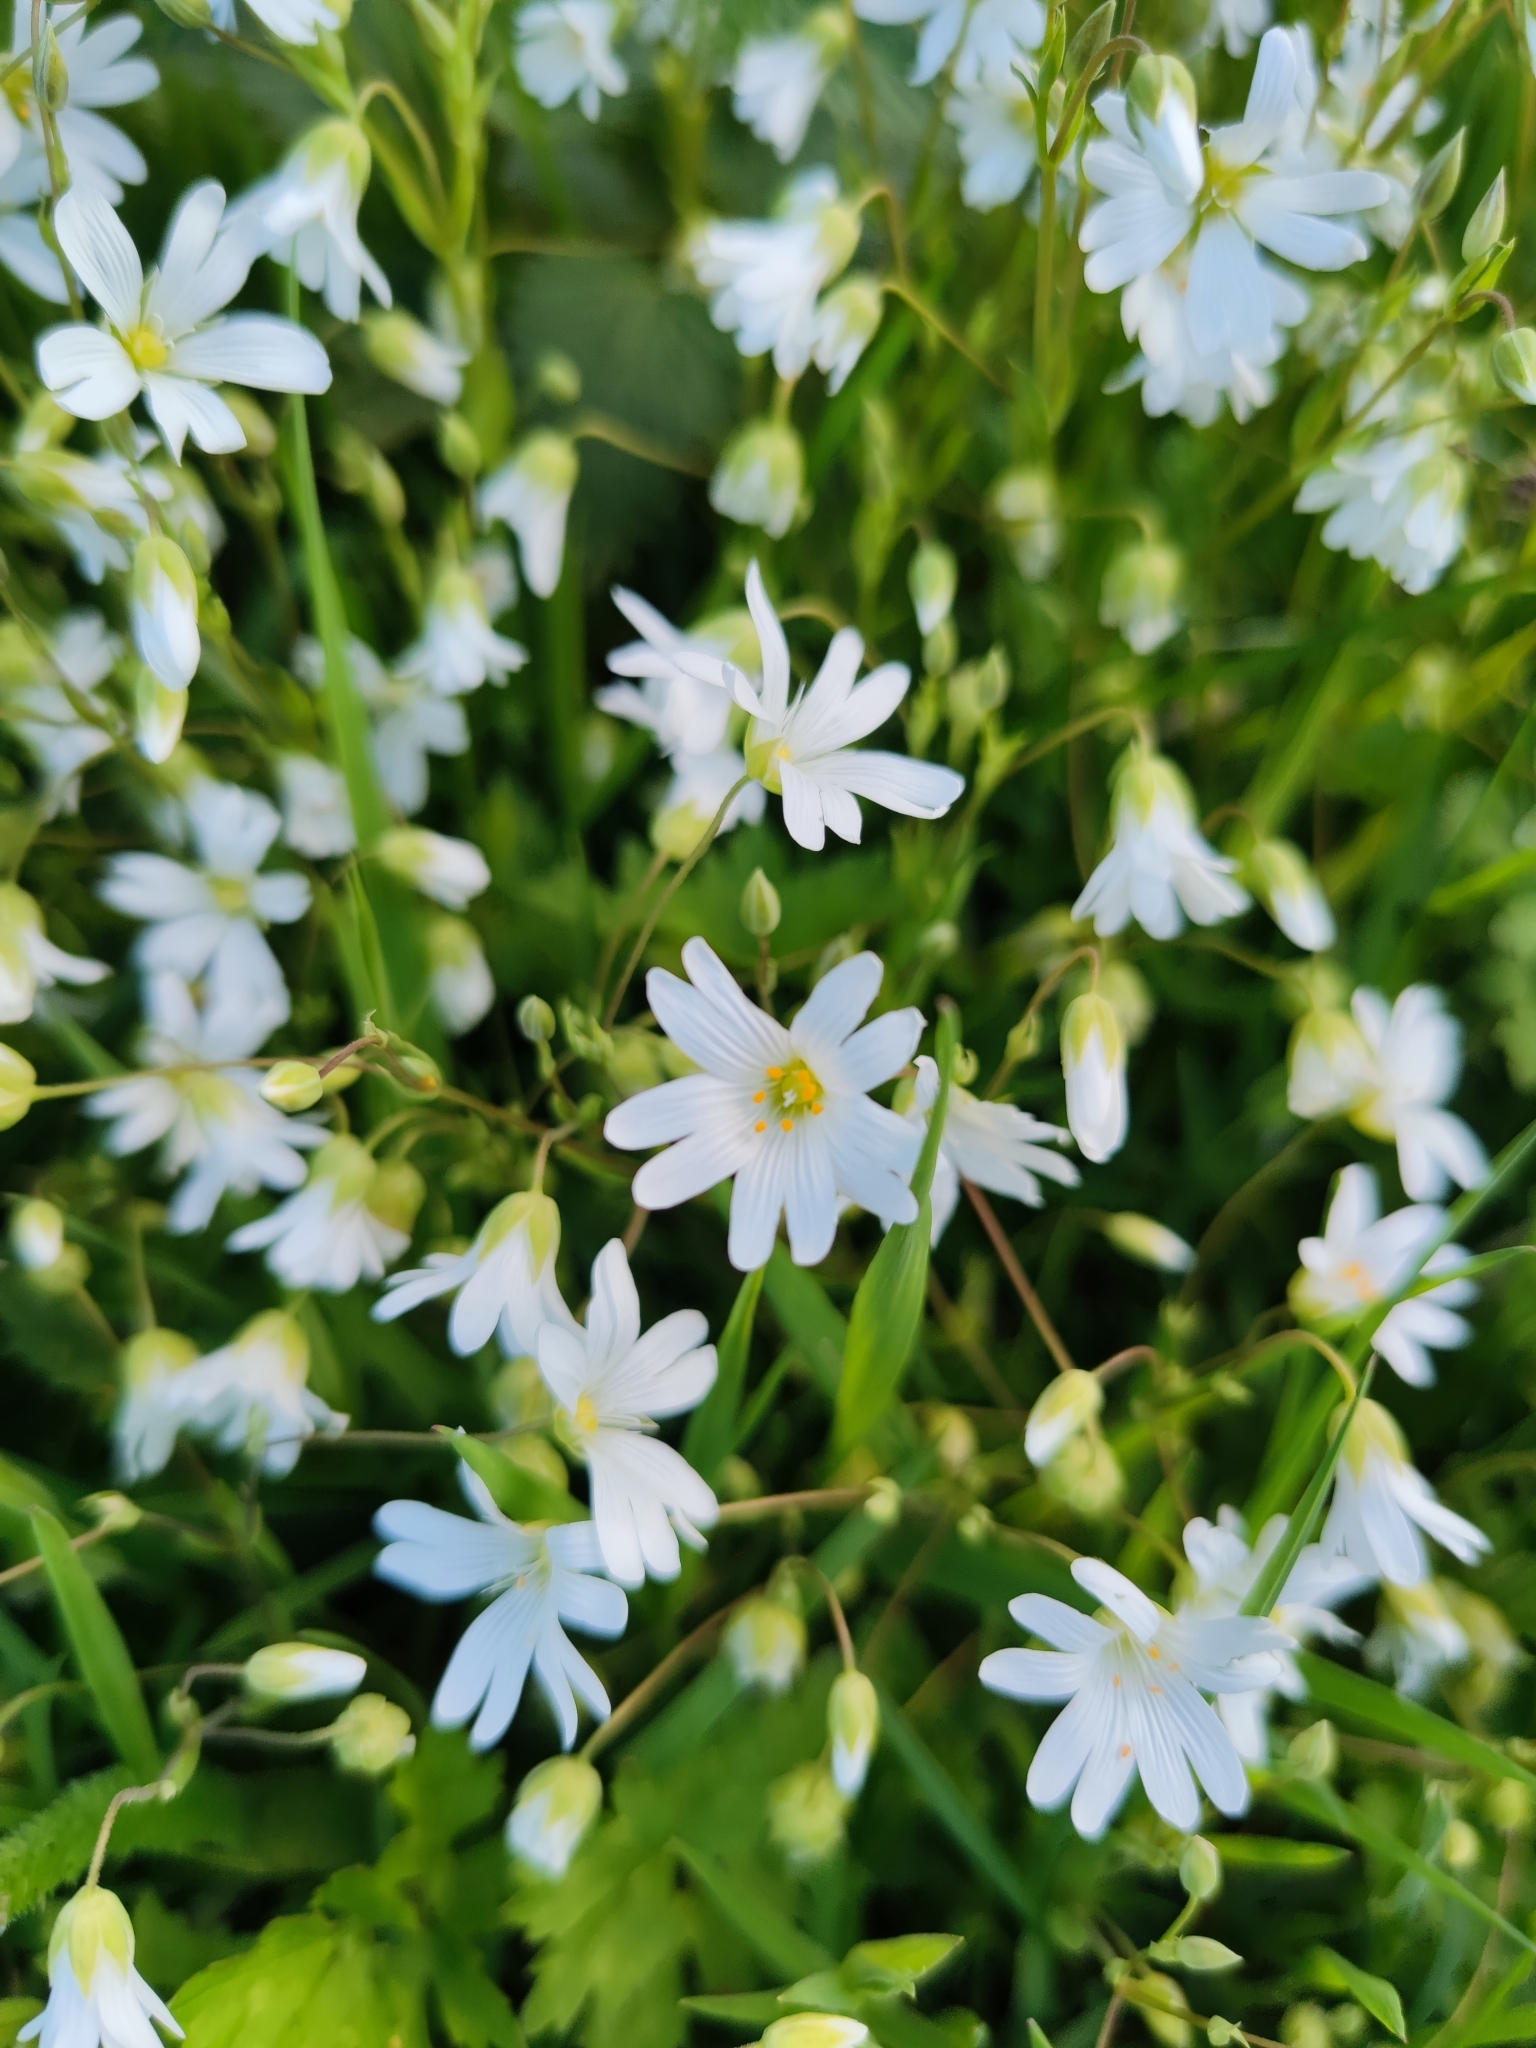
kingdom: Plantae
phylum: Tracheophyta
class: Magnoliopsida
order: Caryophyllales
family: Caryophyllaceae
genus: Rabelera
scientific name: Rabelera holostea
